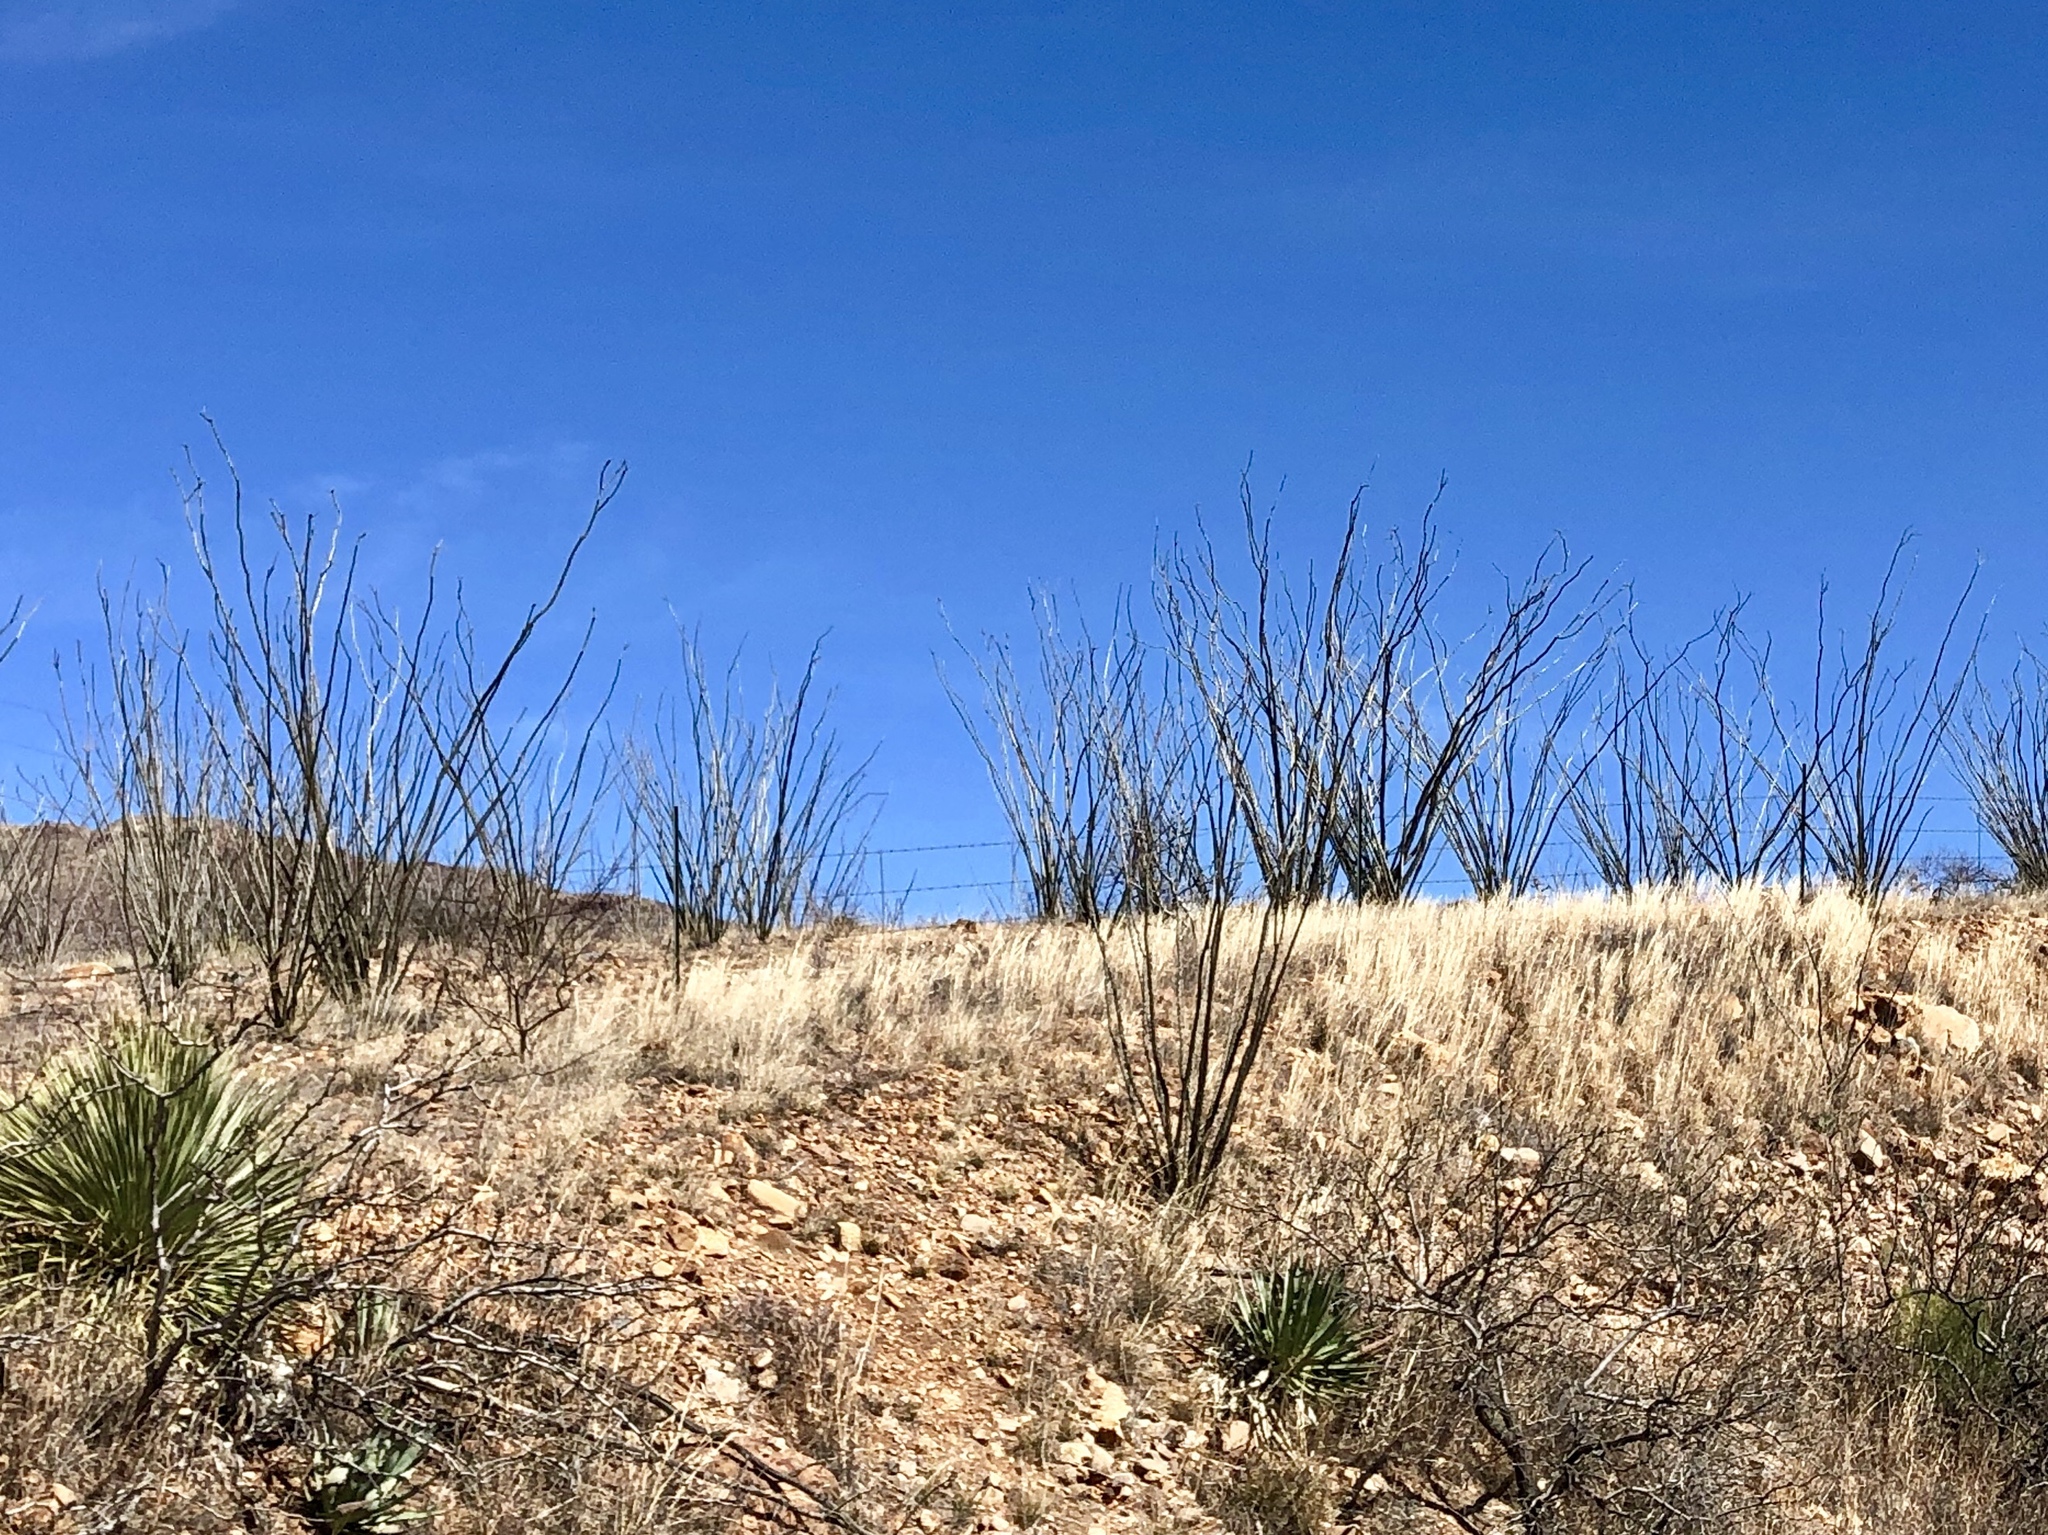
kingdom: Plantae
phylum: Tracheophyta
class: Magnoliopsida
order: Ericales
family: Fouquieriaceae
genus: Fouquieria
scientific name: Fouquieria splendens
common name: Vine-cactus
